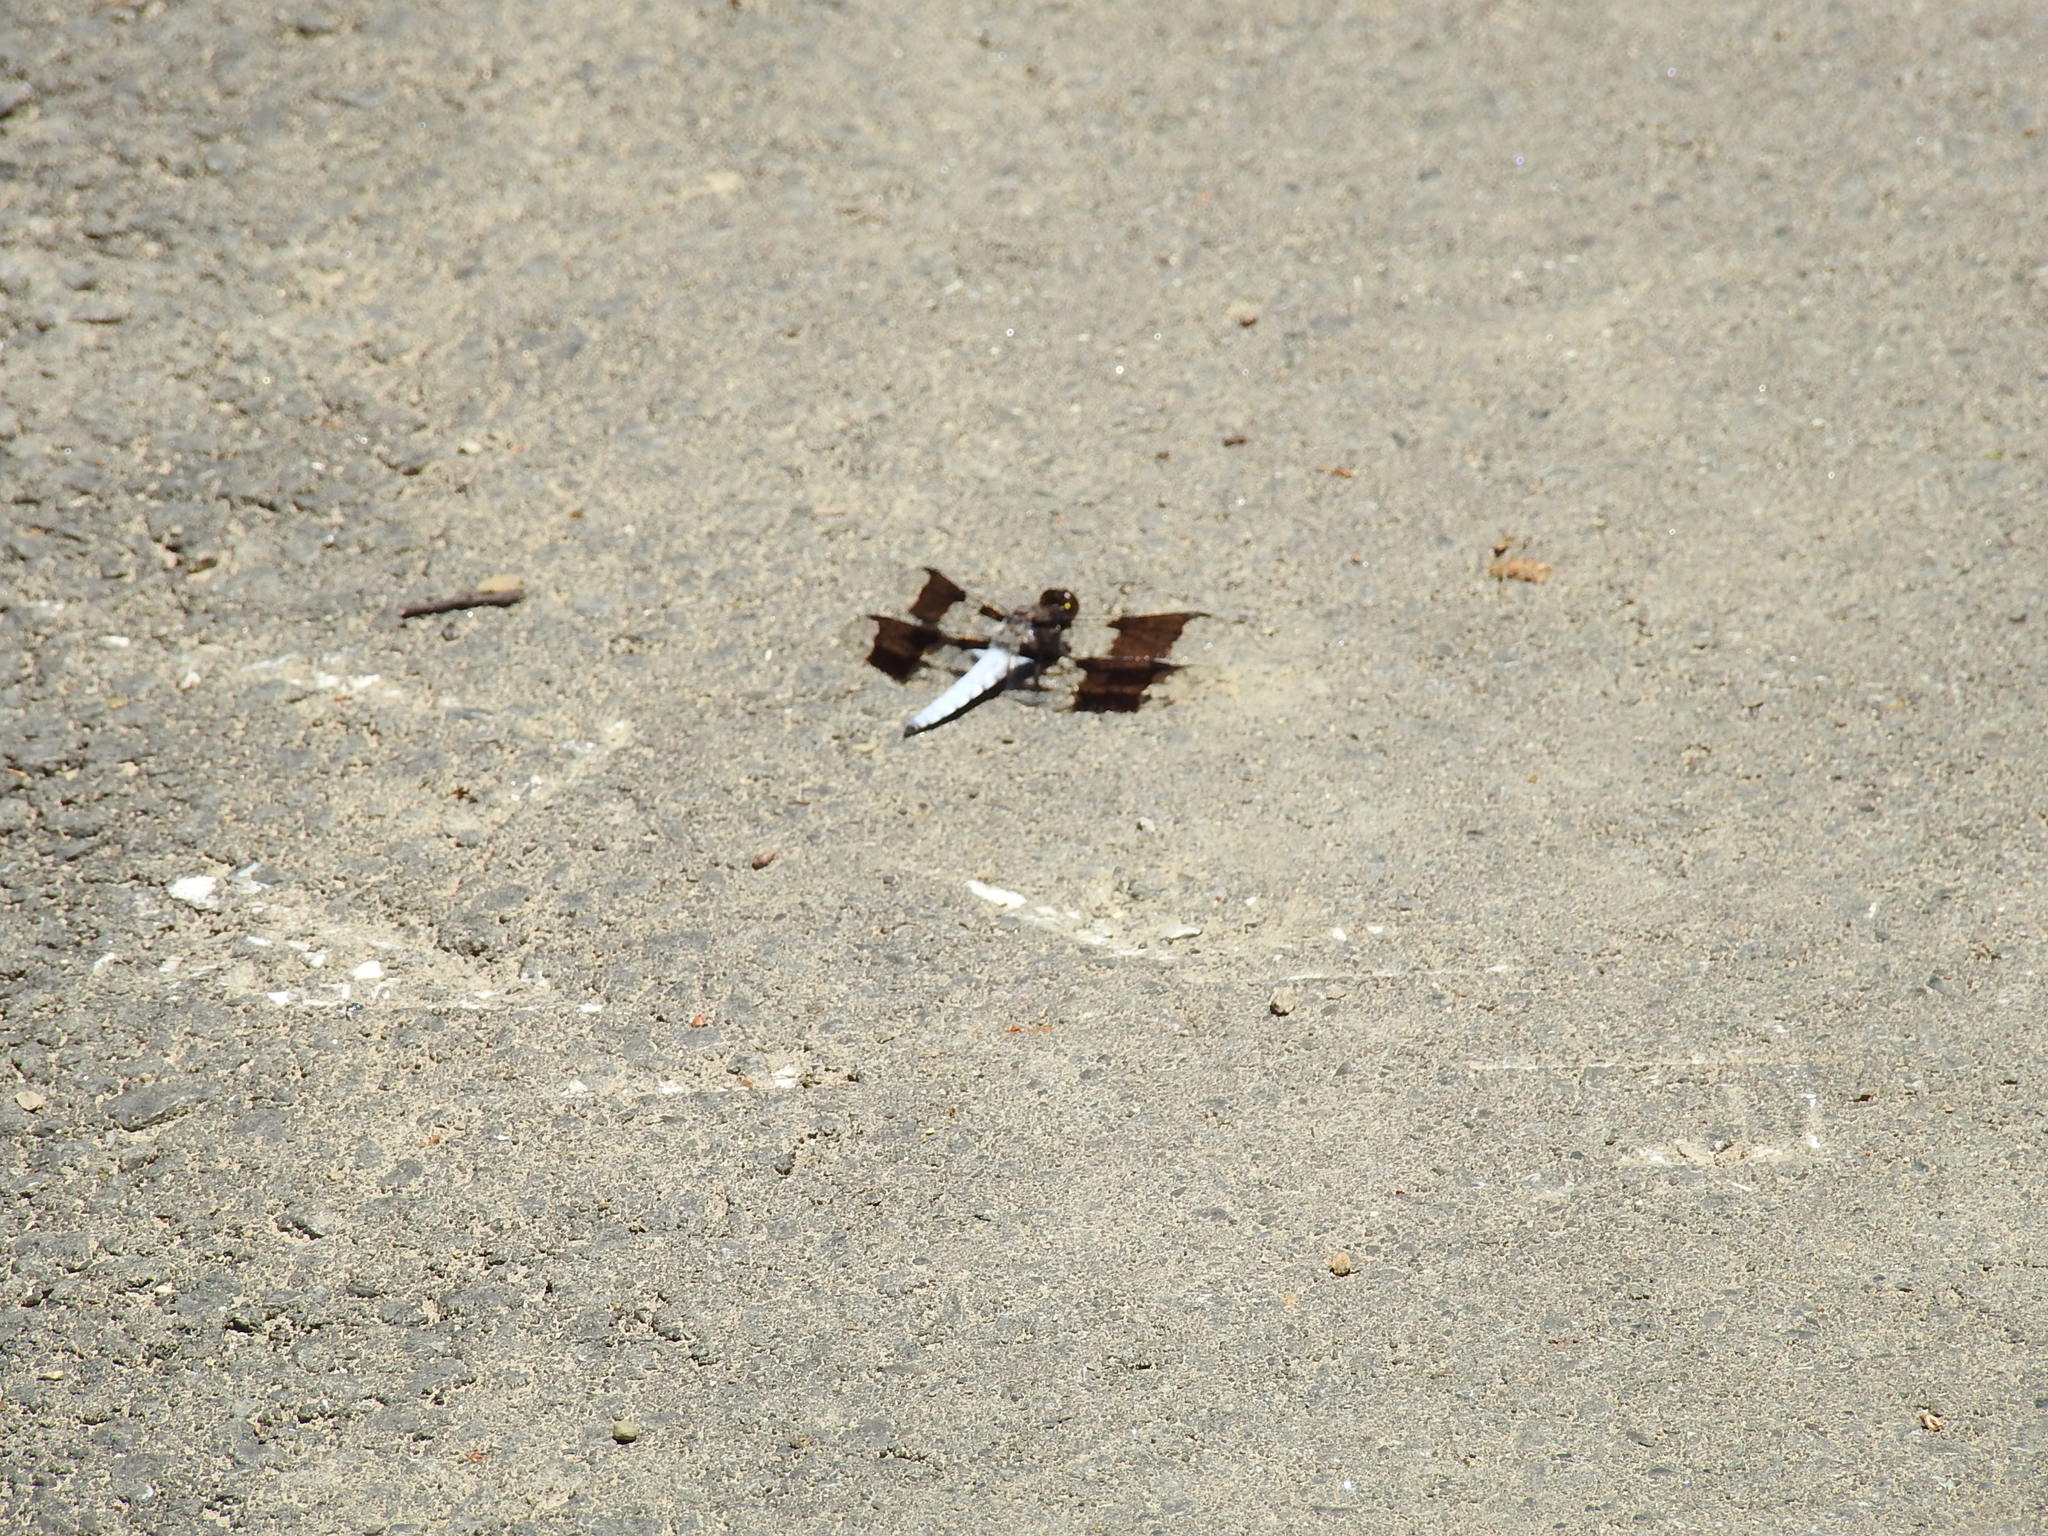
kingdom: Animalia
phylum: Arthropoda
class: Insecta
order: Odonata
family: Libellulidae
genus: Plathemis
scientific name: Plathemis lydia
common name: Common whitetail
